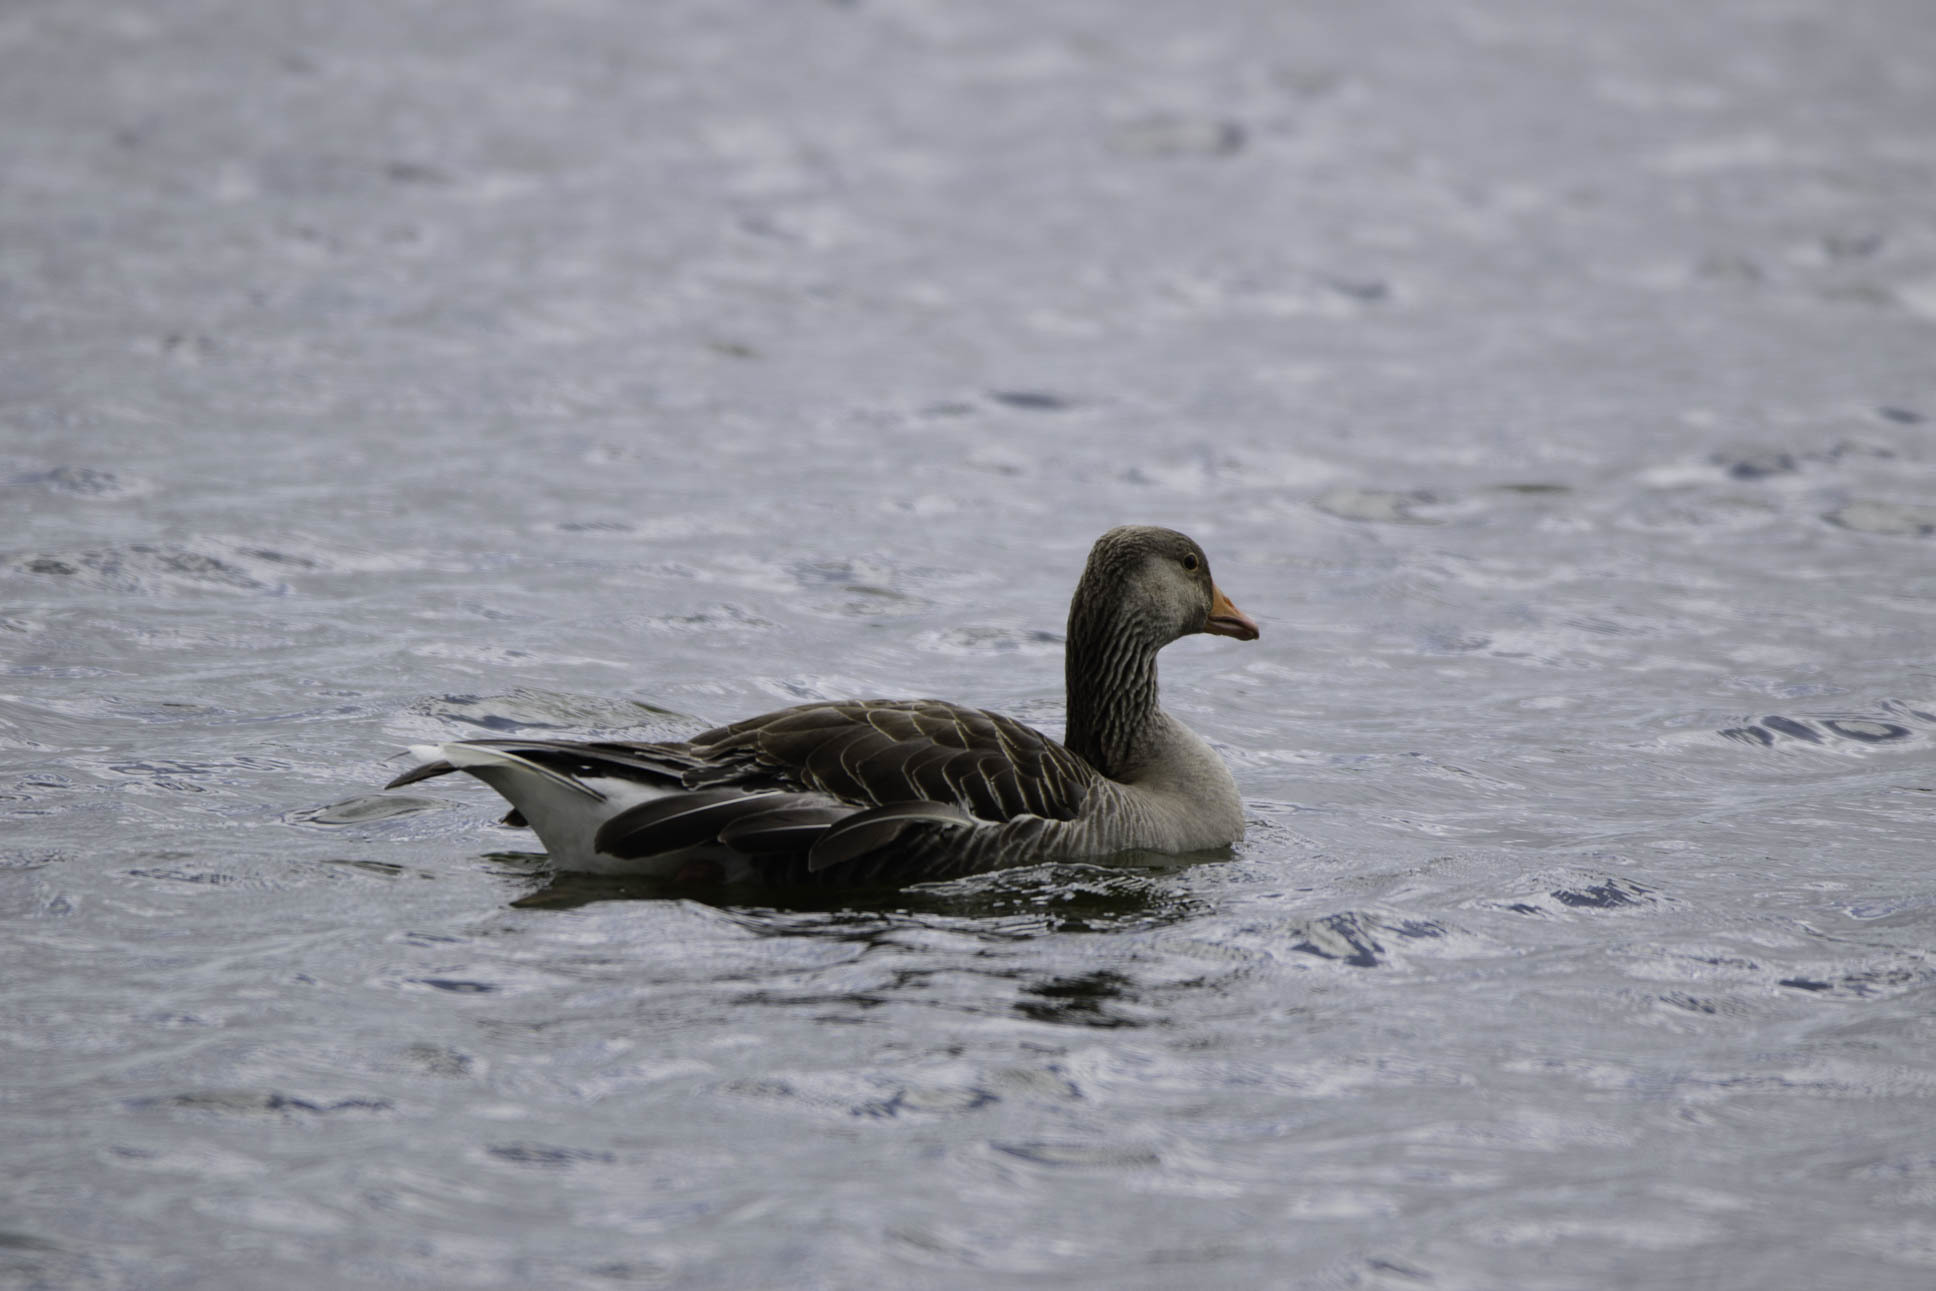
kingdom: Animalia
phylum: Chordata
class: Aves
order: Anseriformes
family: Anatidae
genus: Anser
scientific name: Anser anser
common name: Greylag goose
